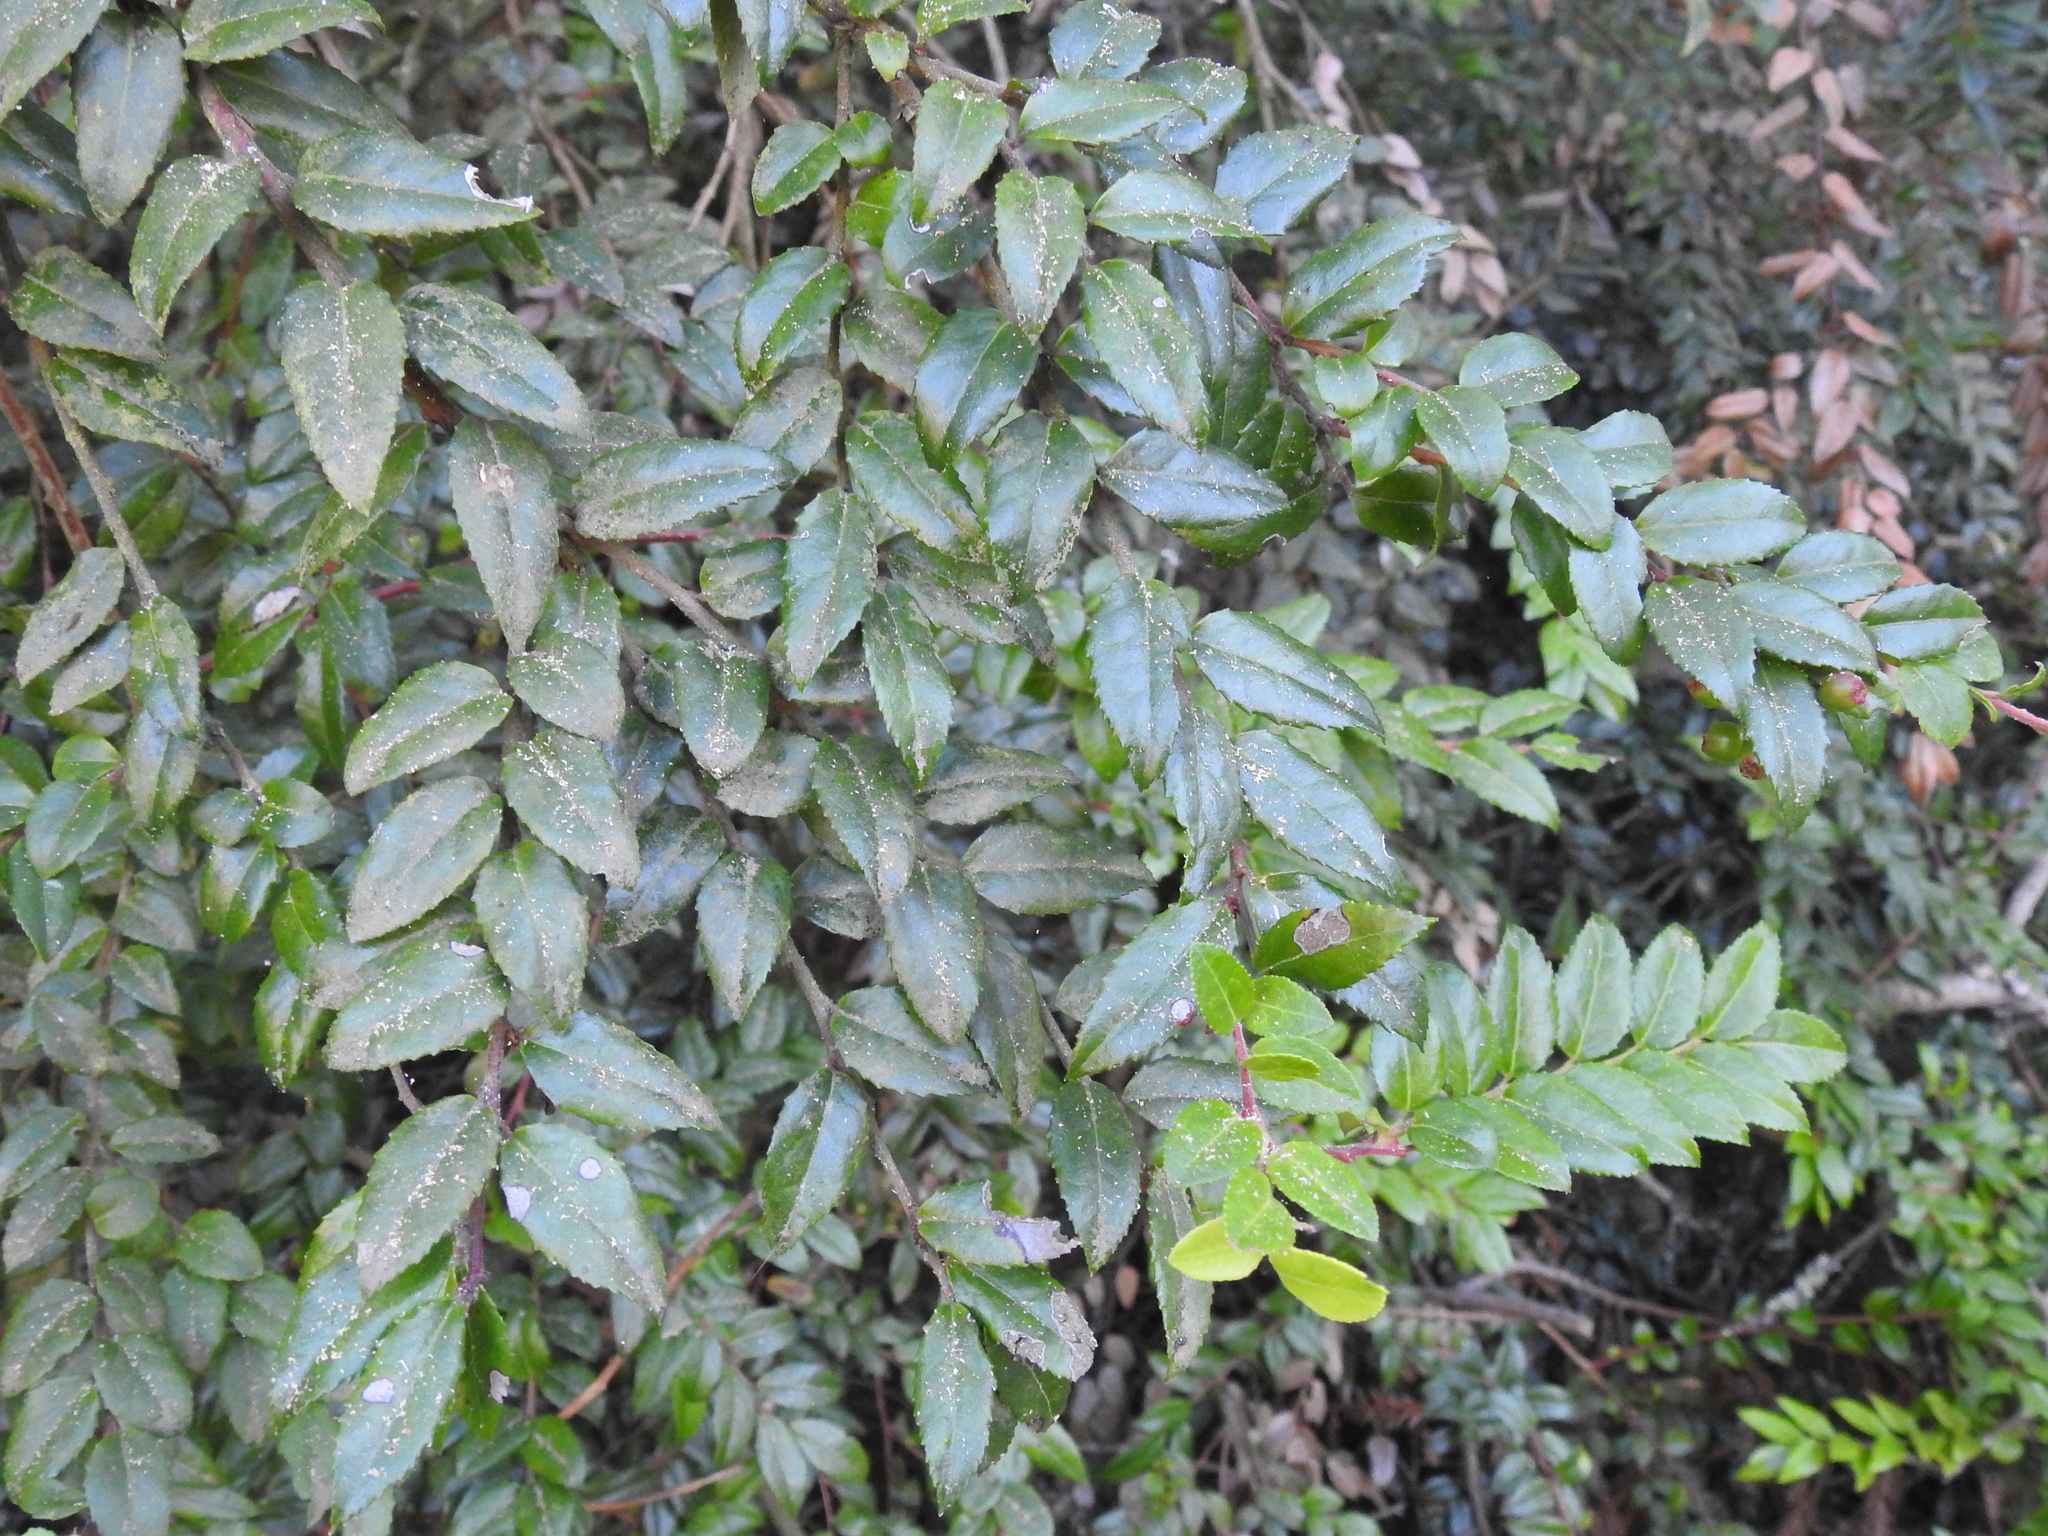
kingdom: Plantae
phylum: Tracheophyta
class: Magnoliopsida
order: Ericales
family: Ericaceae
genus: Vaccinium
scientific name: Vaccinium ovatum
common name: California-huckleberry
